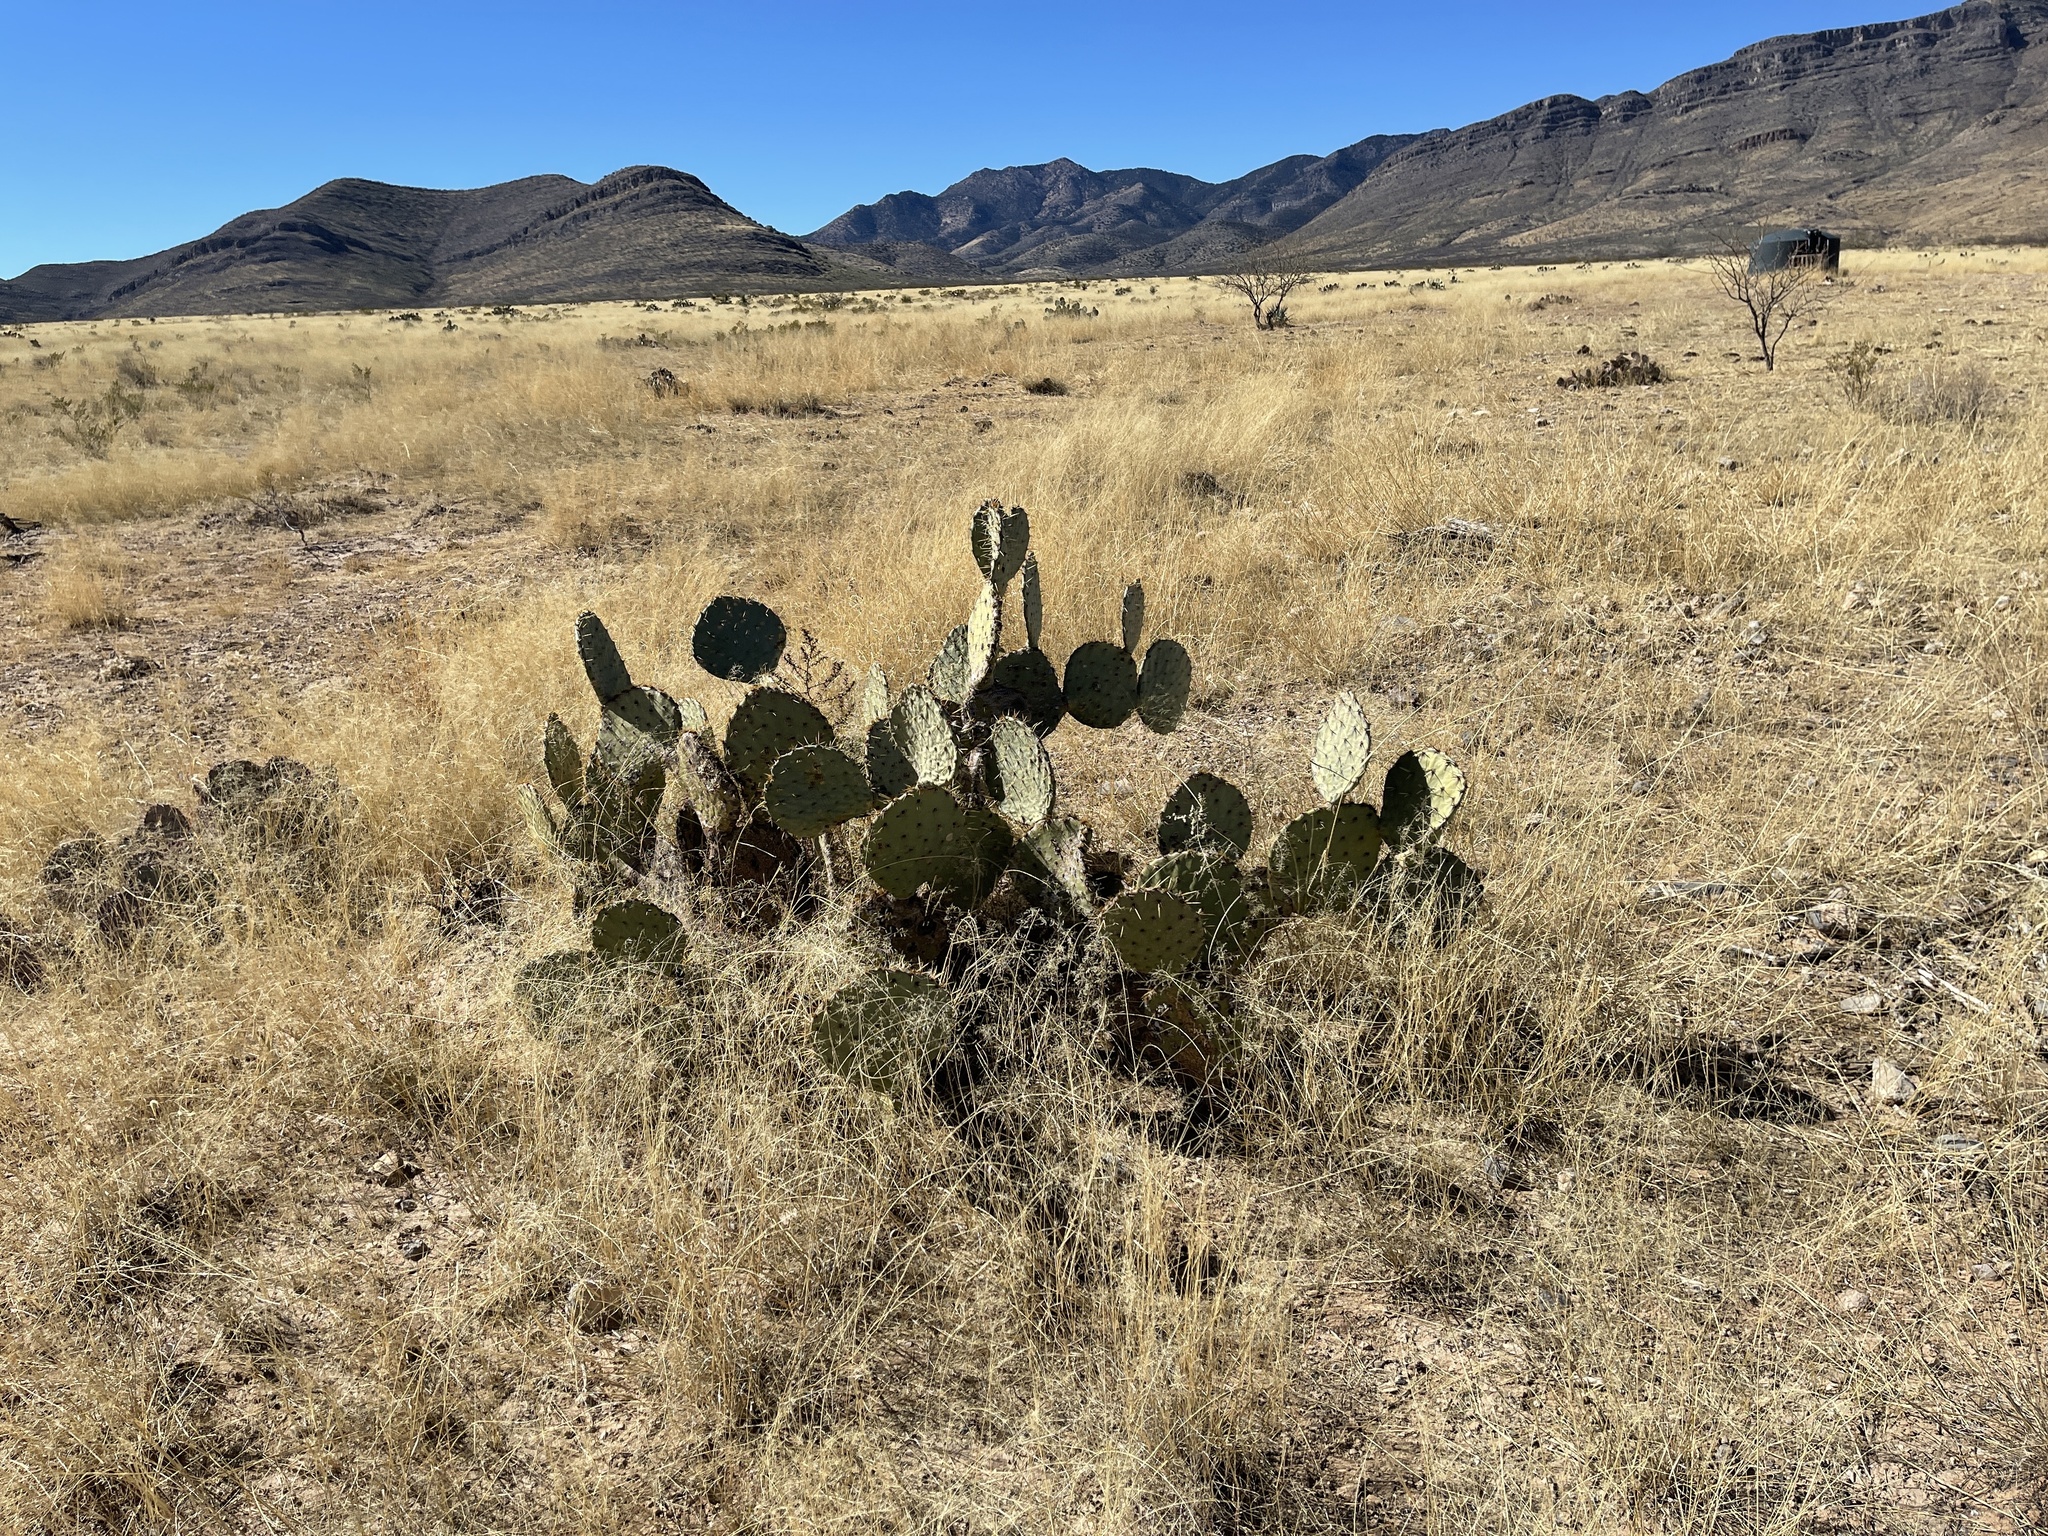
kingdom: Plantae
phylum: Tracheophyta
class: Magnoliopsida
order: Caryophyllales
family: Cactaceae
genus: Opuntia
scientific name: Opuntia engelmannii
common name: Cactus-apple
